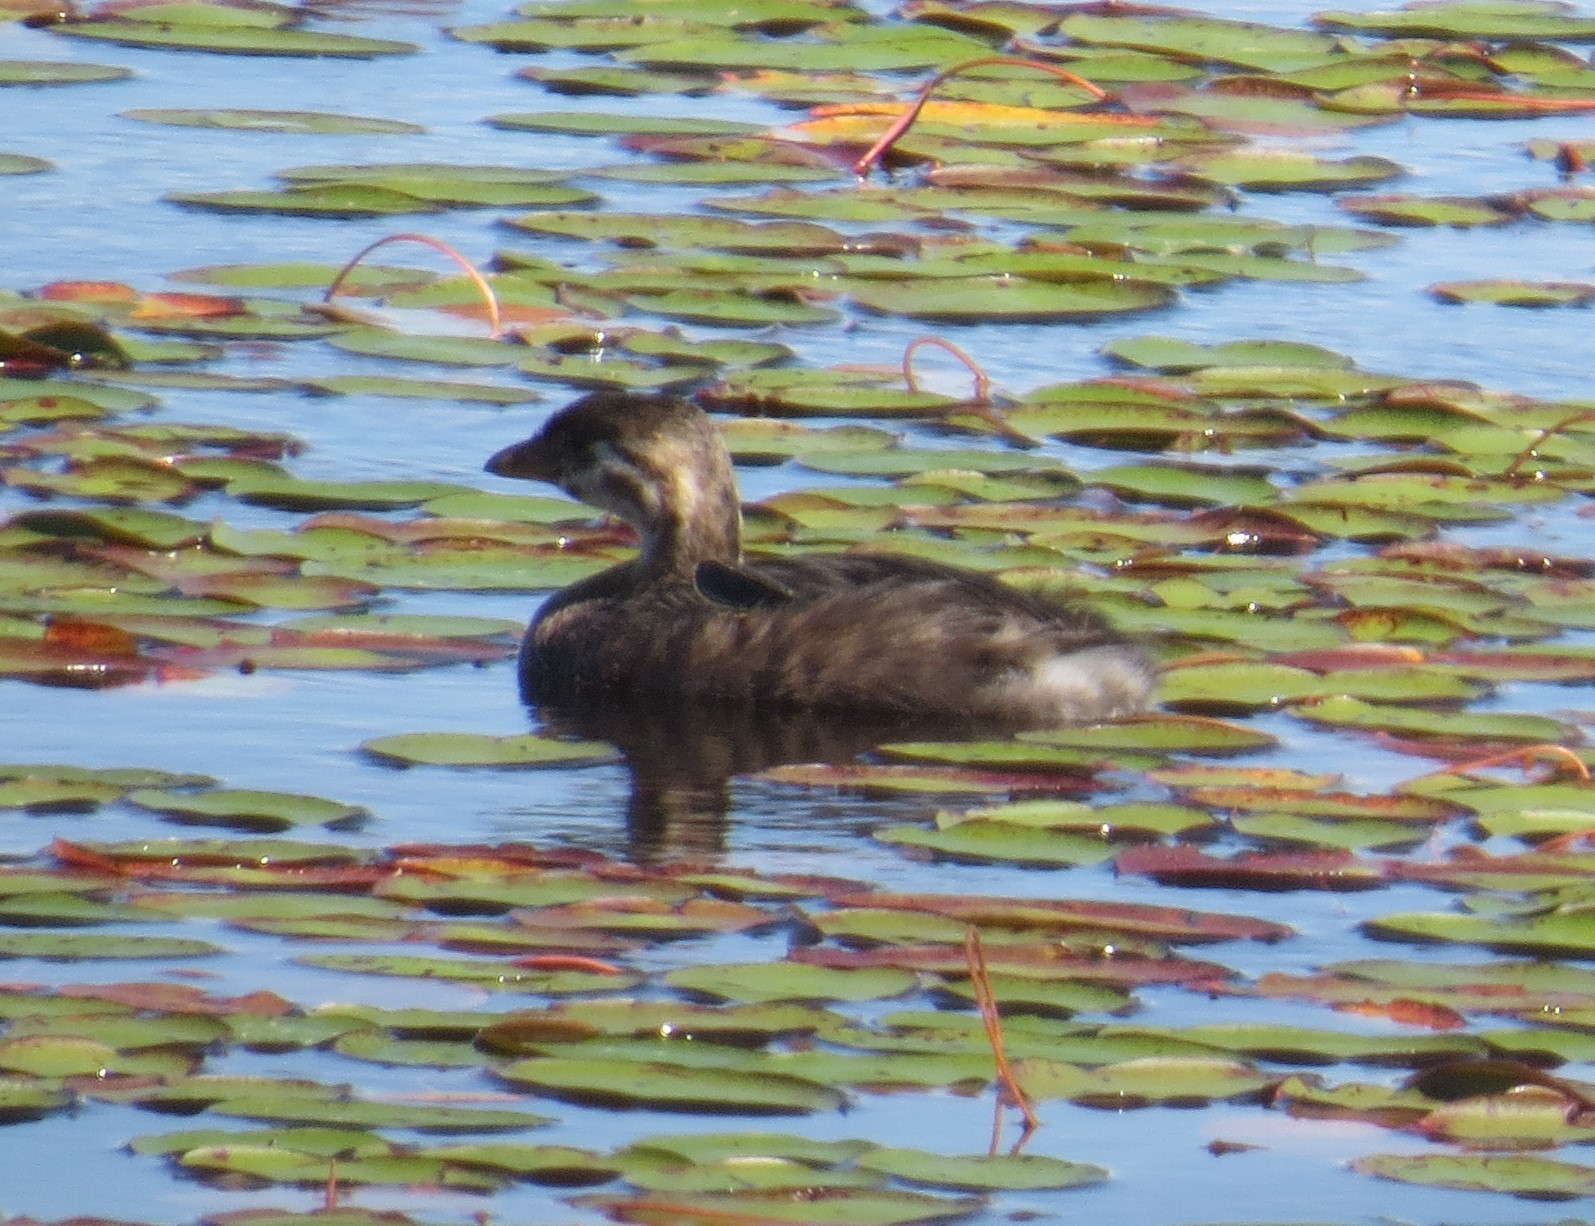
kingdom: Animalia
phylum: Chordata
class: Aves
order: Podicipediformes
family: Podicipedidae
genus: Podilymbus
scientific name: Podilymbus podiceps
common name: Pied-billed grebe
